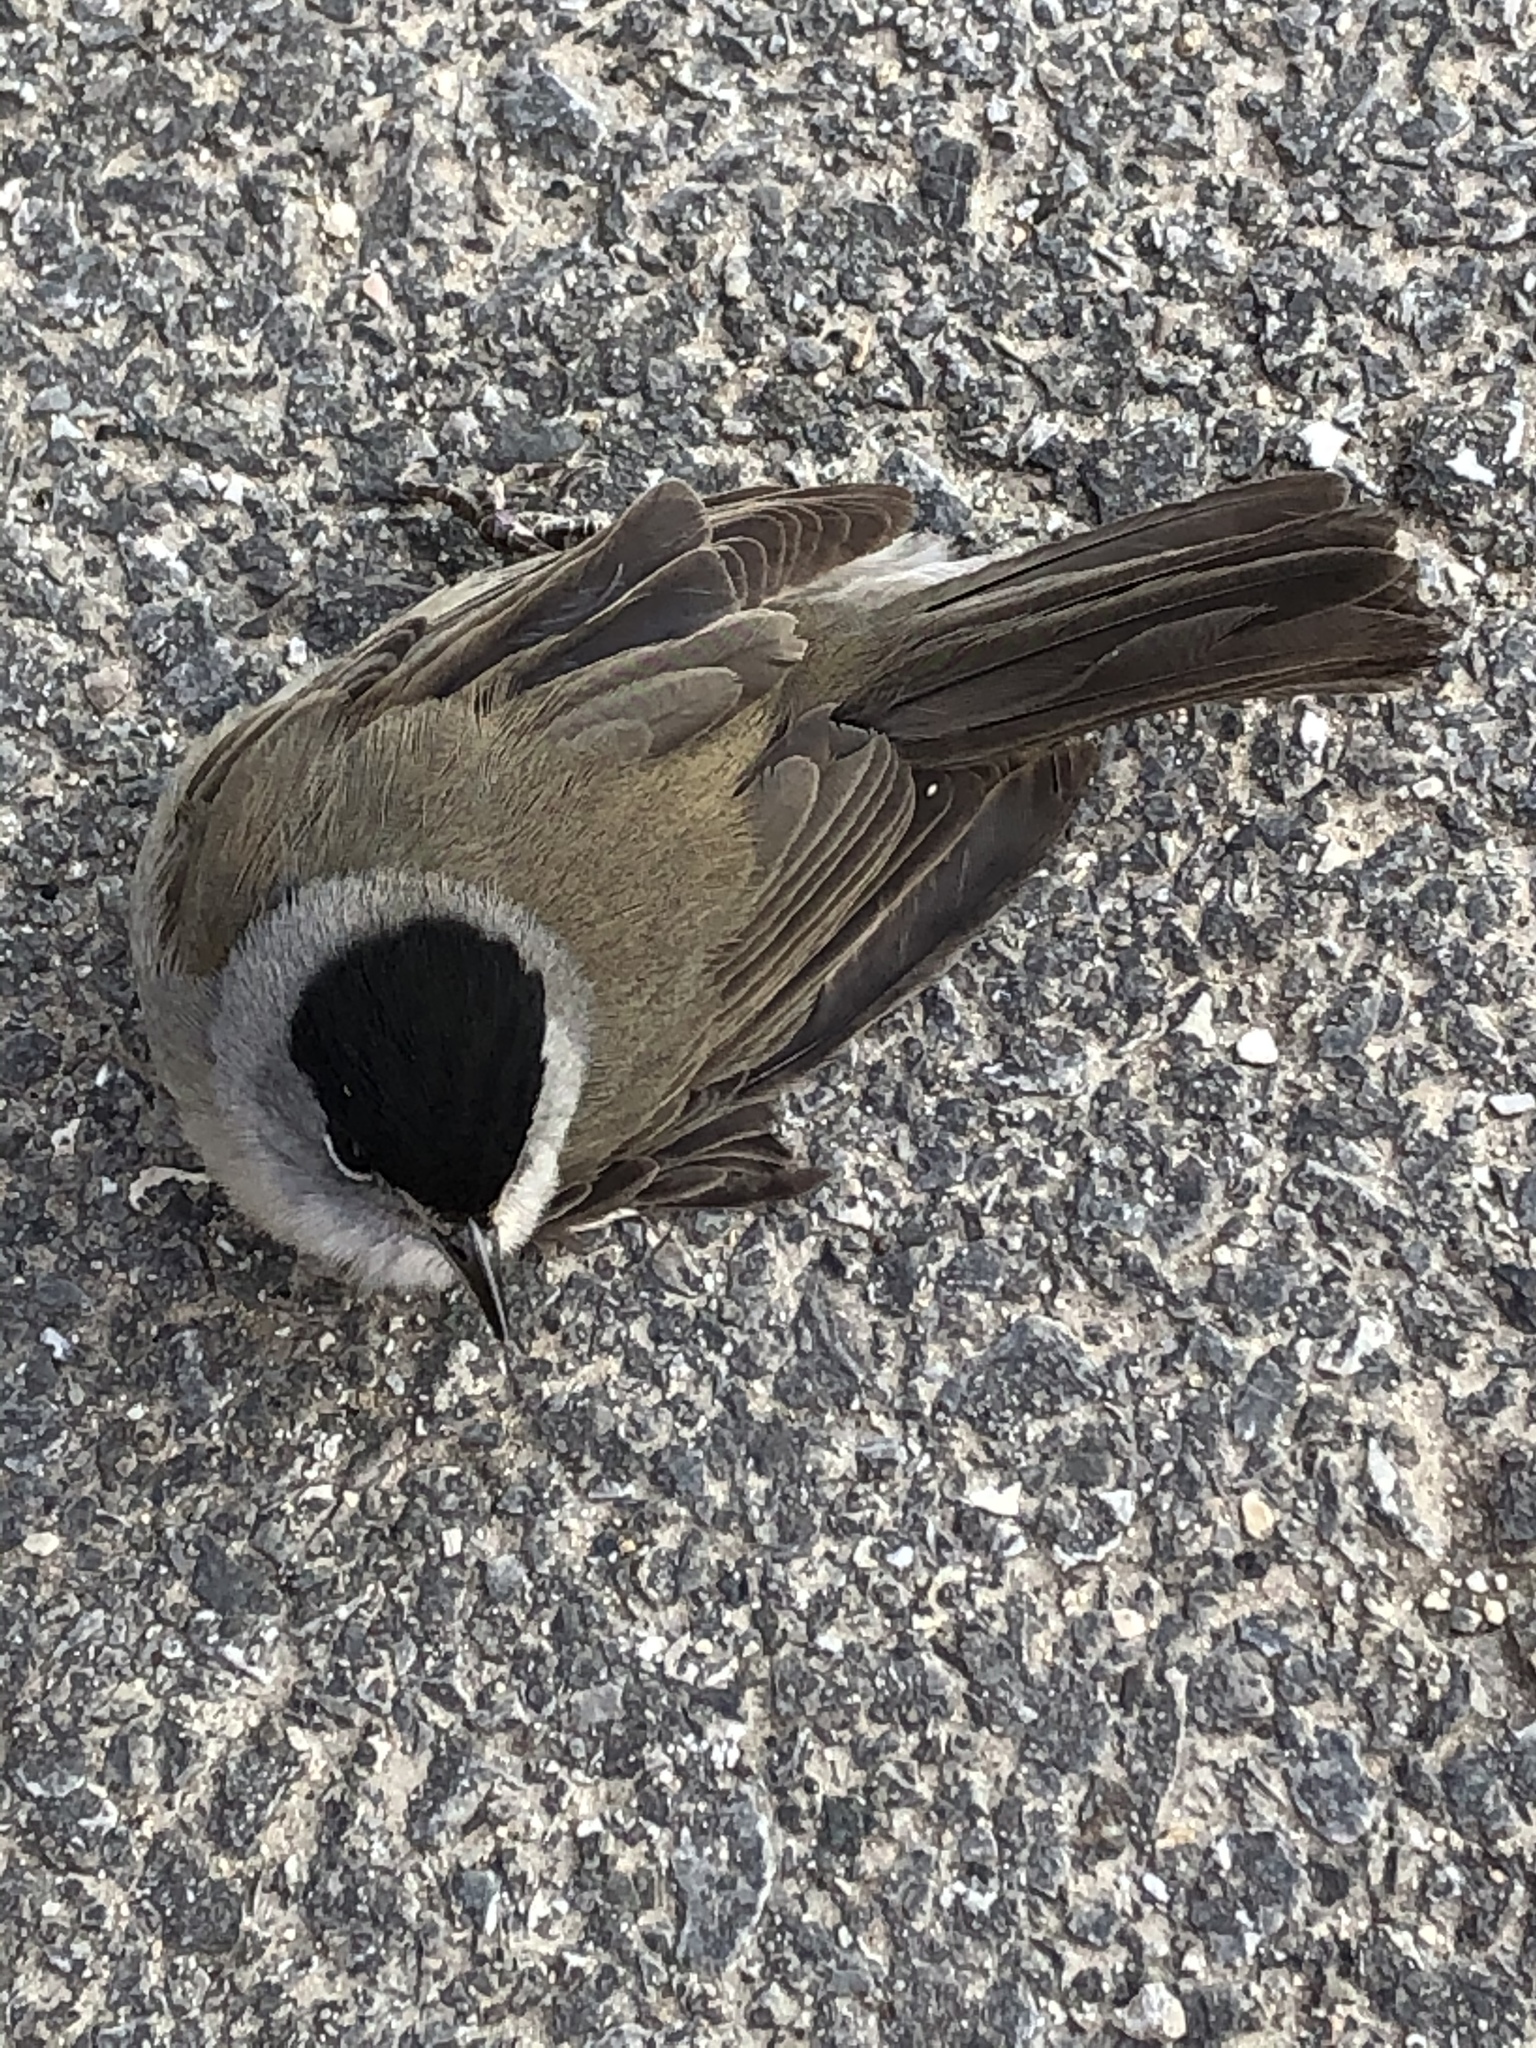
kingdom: Animalia
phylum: Chordata
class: Aves
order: Passeriformes
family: Sylviidae
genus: Sylvia
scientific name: Sylvia atricapilla
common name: Eurasian blackcap
